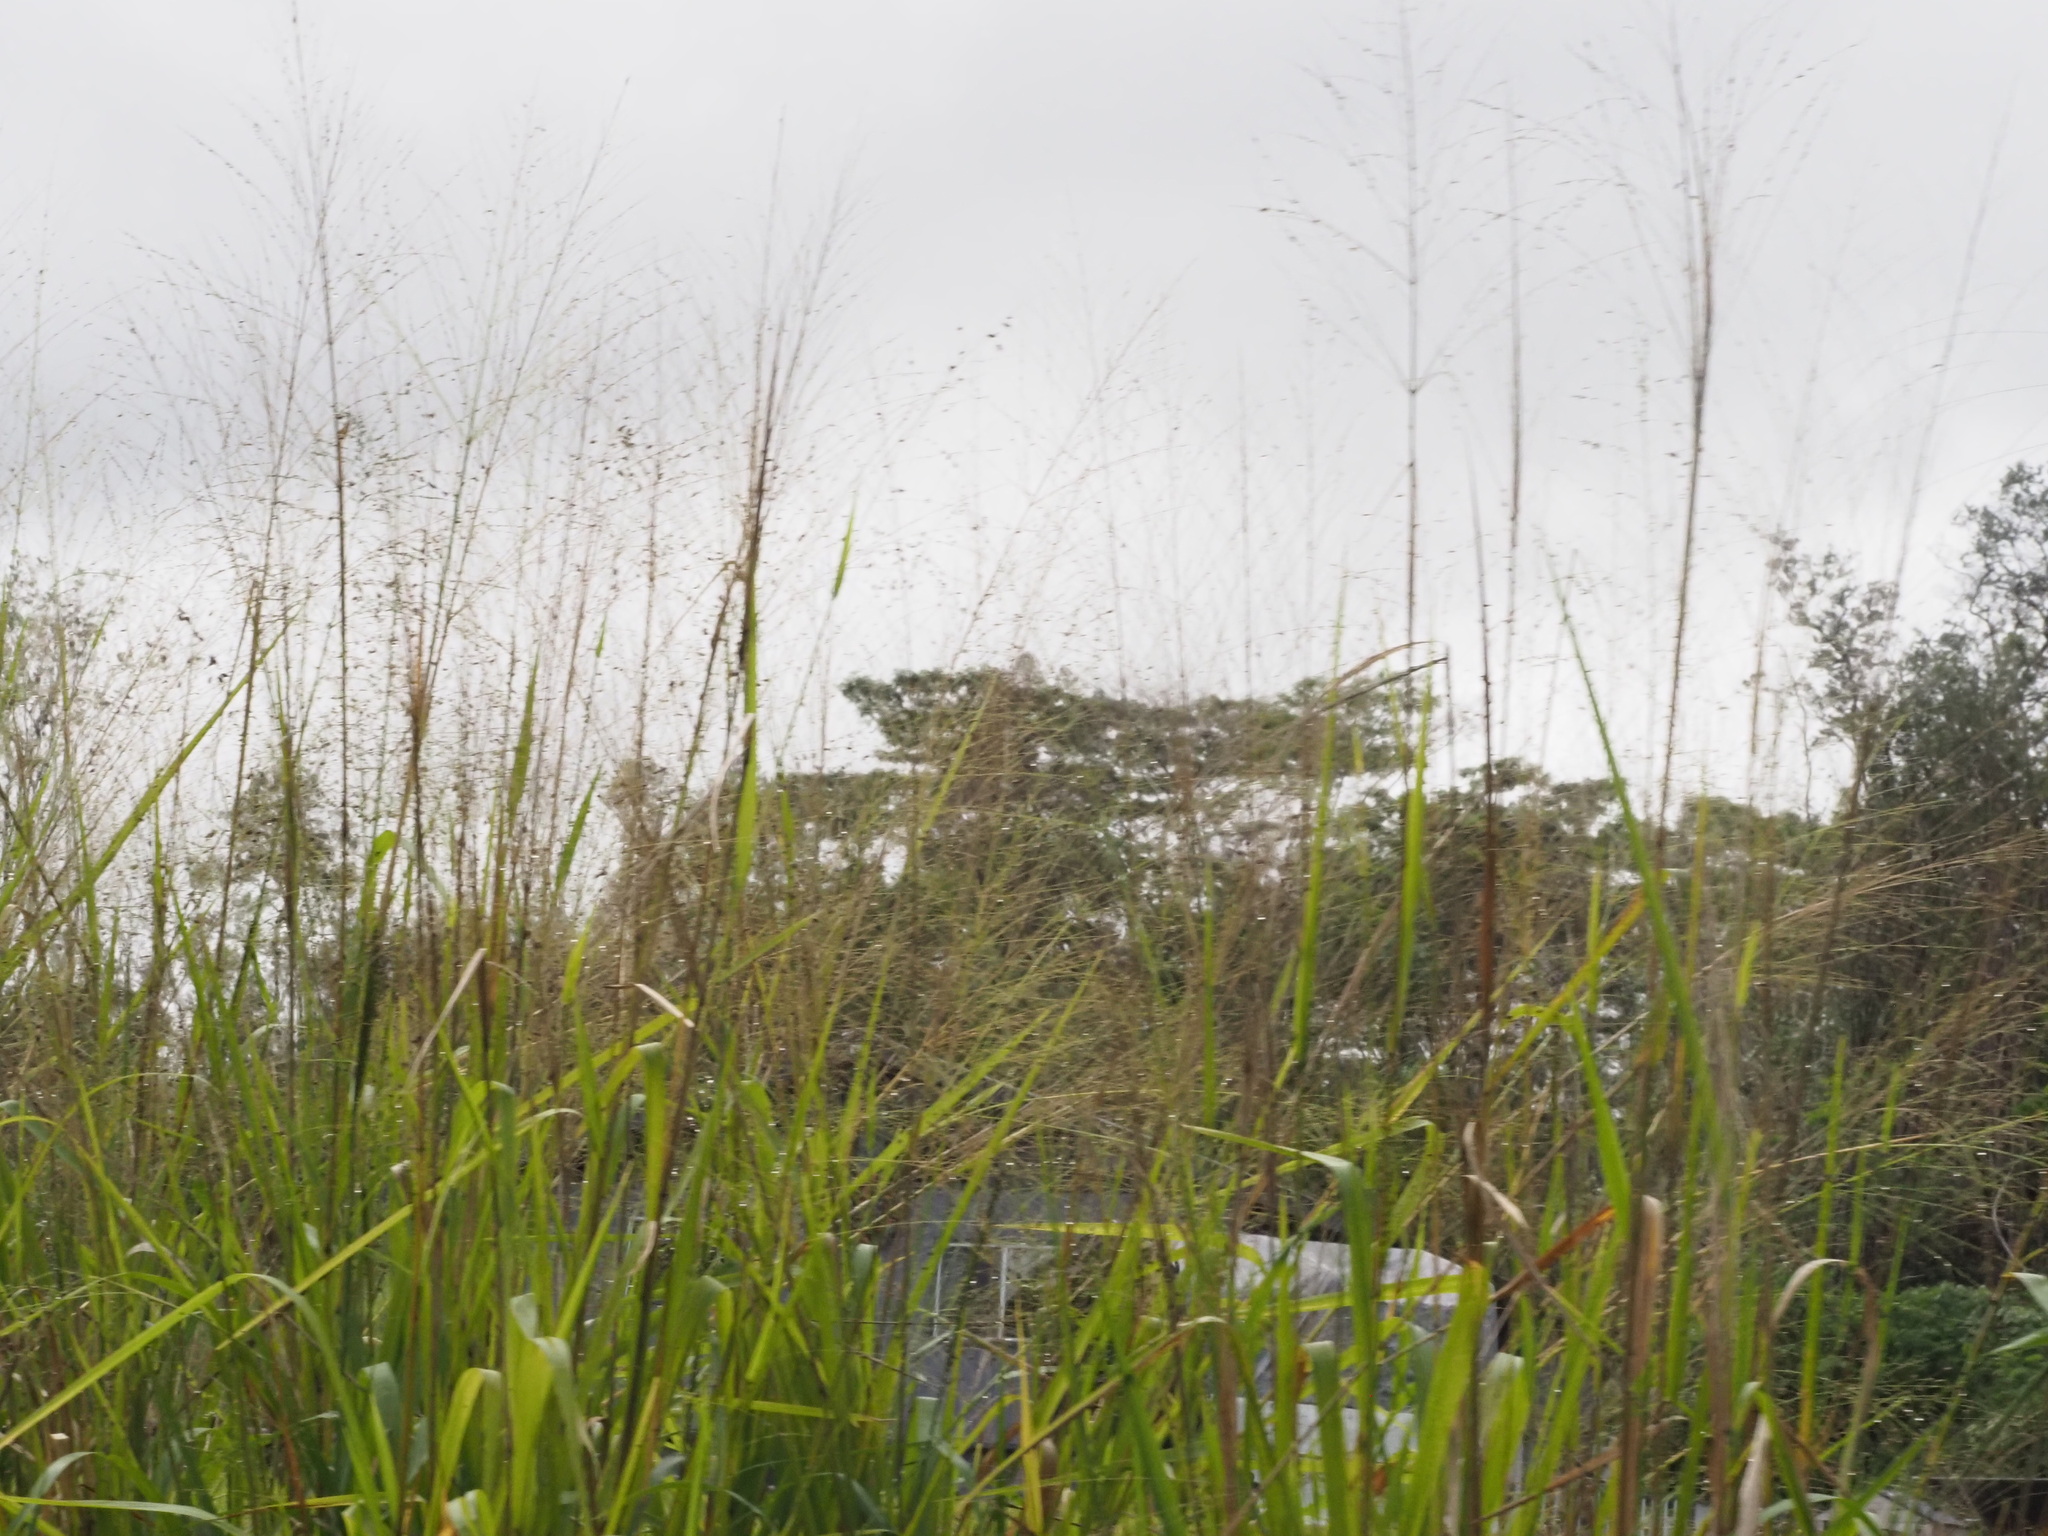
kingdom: Plantae
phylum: Tracheophyta
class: Liliopsida
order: Poales
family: Poaceae
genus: Megathyrsus
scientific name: Megathyrsus maximus
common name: Guineagrass
